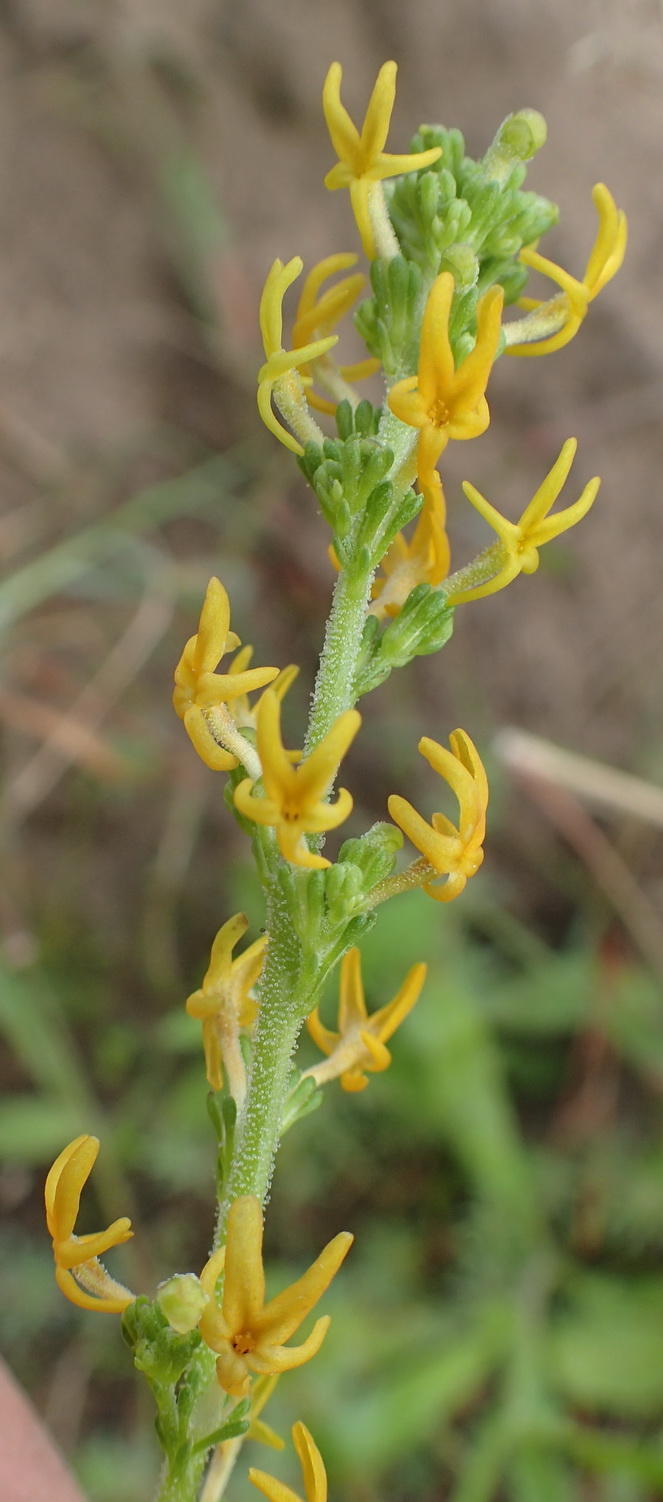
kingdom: Plantae
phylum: Tracheophyta
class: Magnoliopsida
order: Lamiales
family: Scrophulariaceae
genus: Manulea
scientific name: Manulea cheiranthus
